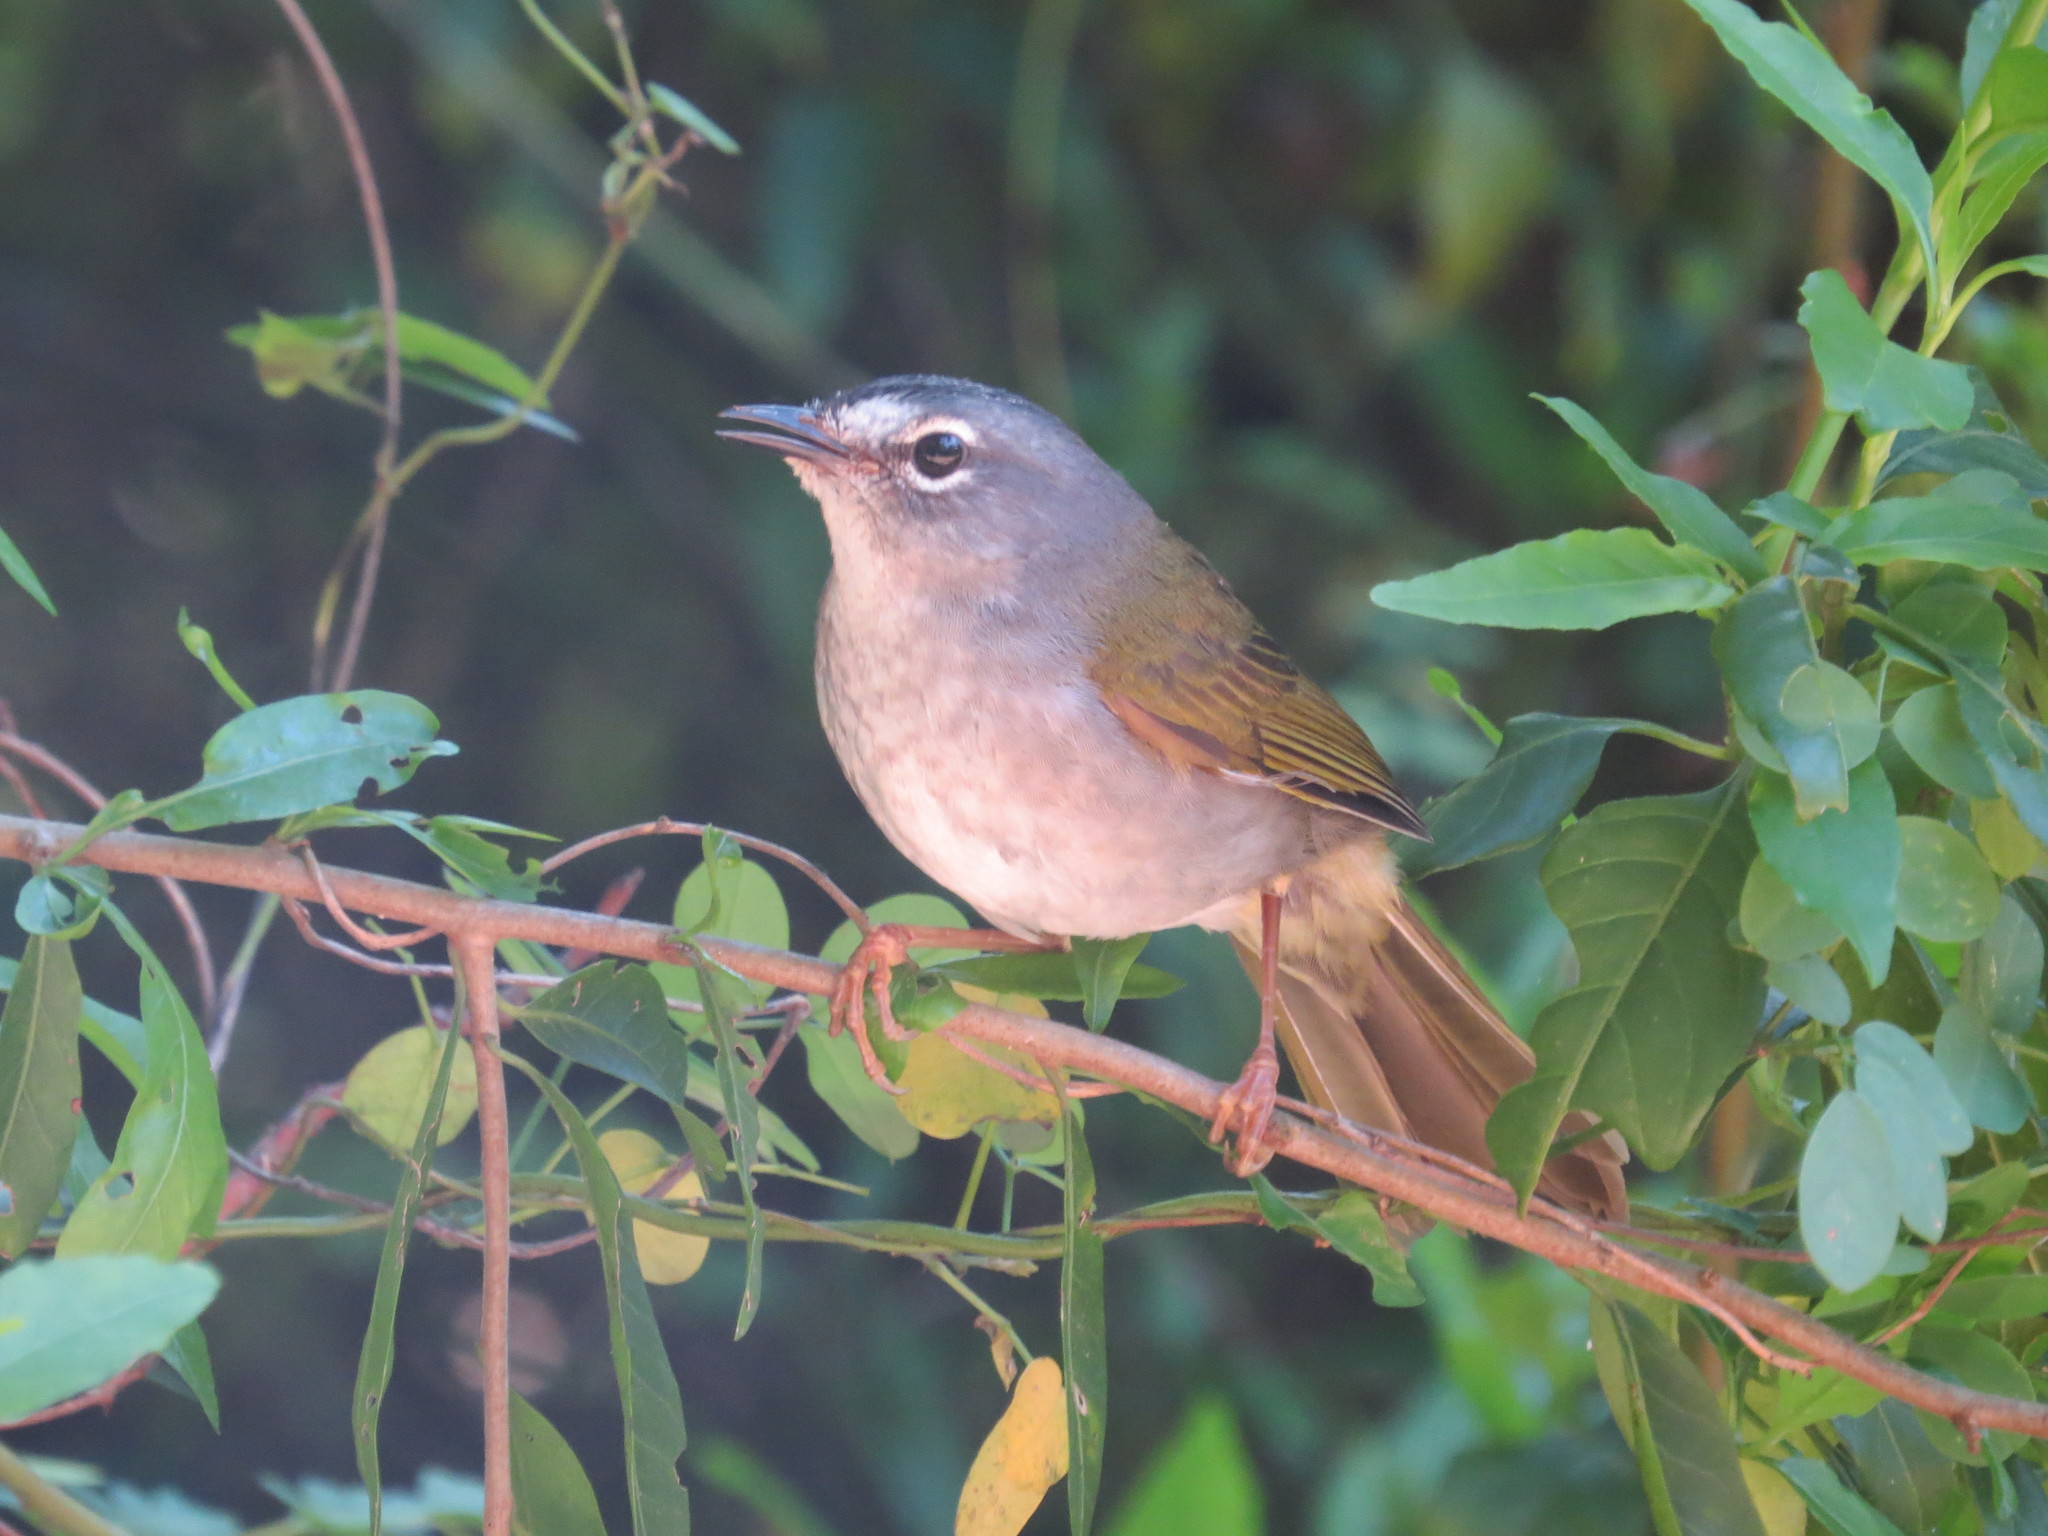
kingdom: Animalia
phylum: Chordata
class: Aves
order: Passeriformes
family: Parulidae
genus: Myiothlypis
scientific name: Myiothlypis leucoblephara
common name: White-rimmed warbler
